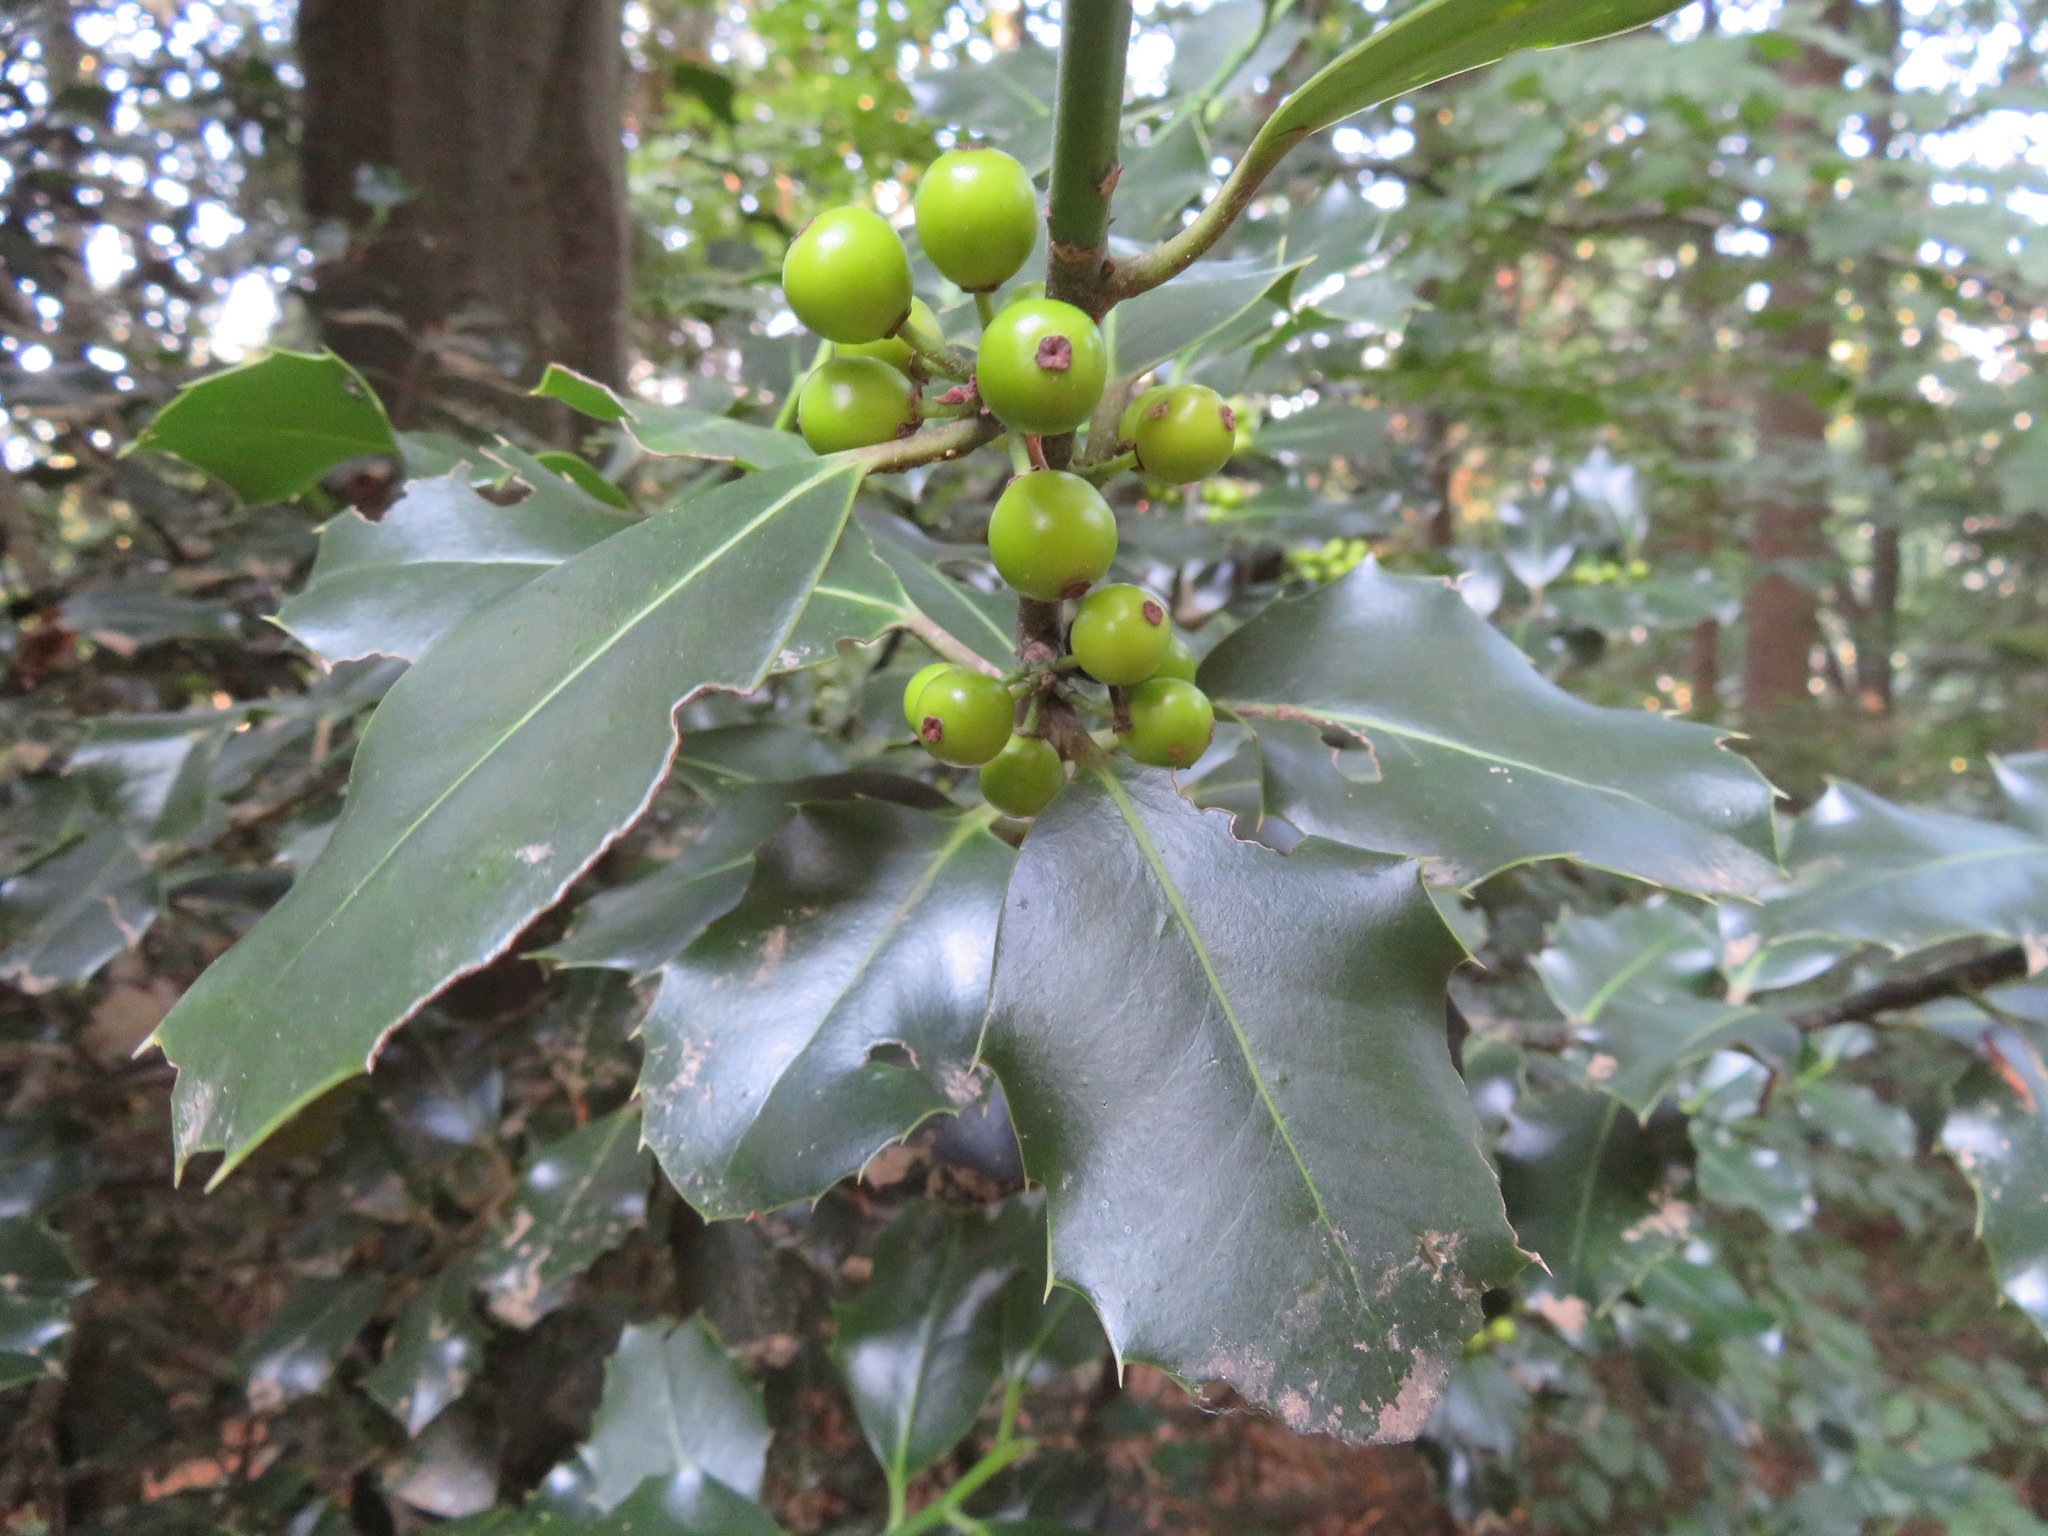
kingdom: Plantae
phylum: Tracheophyta
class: Magnoliopsida
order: Aquifoliales
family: Aquifoliaceae
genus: Ilex
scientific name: Ilex aquifolium
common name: English holly
